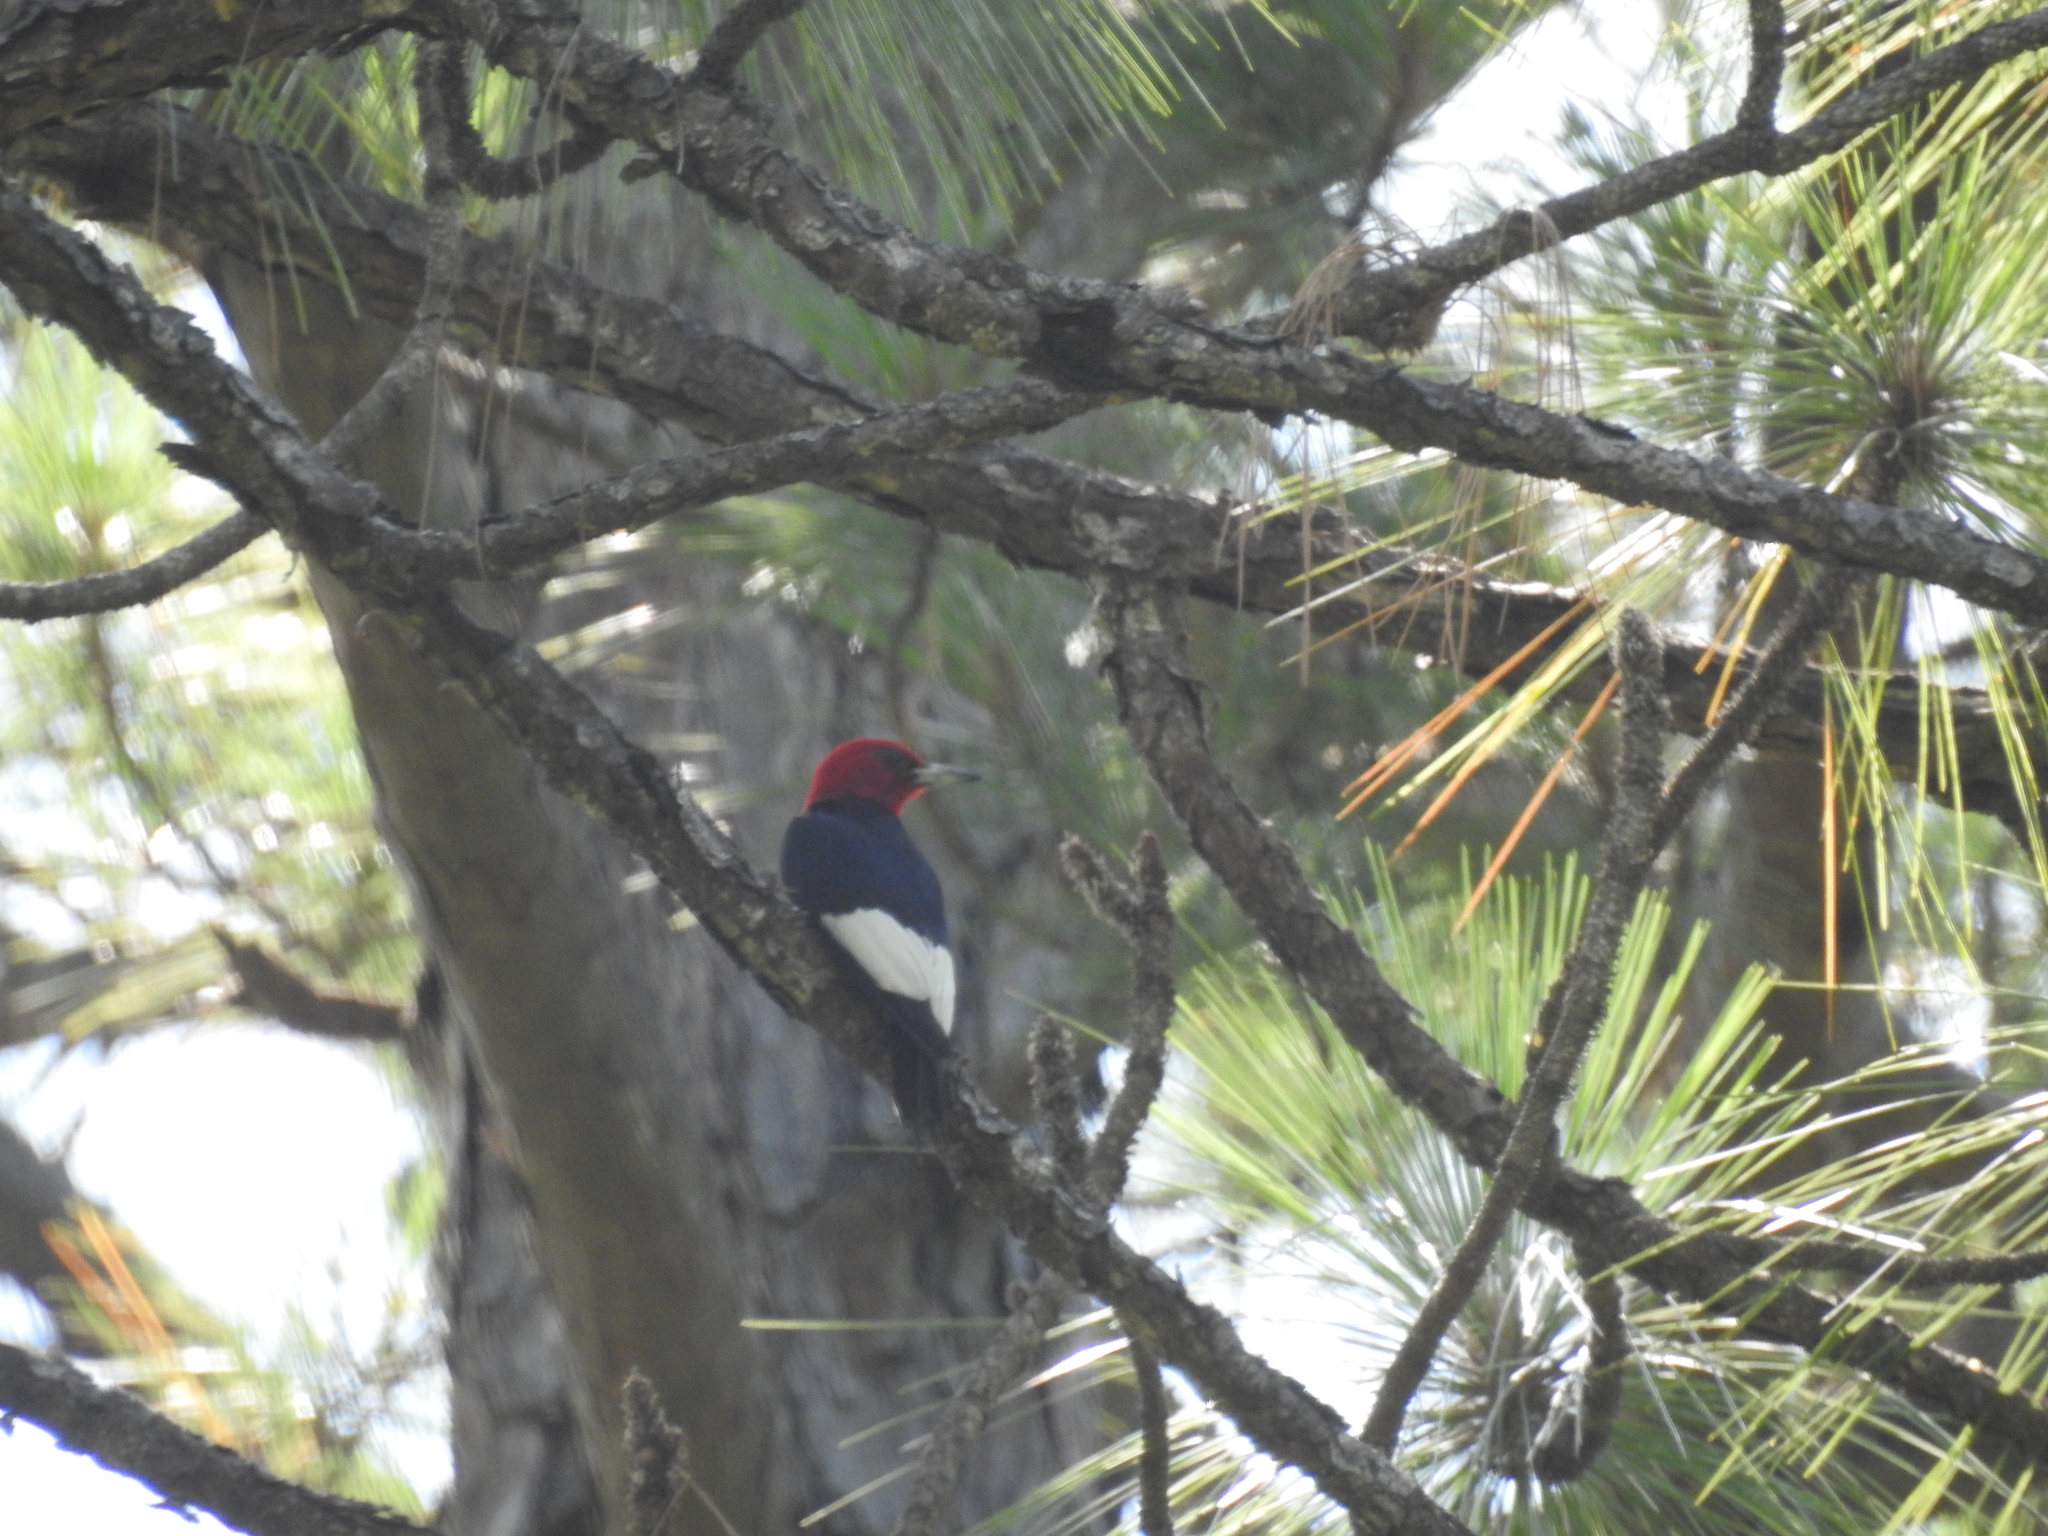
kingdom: Animalia
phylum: Chordata
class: Aves
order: Piciformes
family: Picidae
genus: Melanerpes
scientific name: Melanerpes erythrocephalus
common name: Red-headed woodpecker
